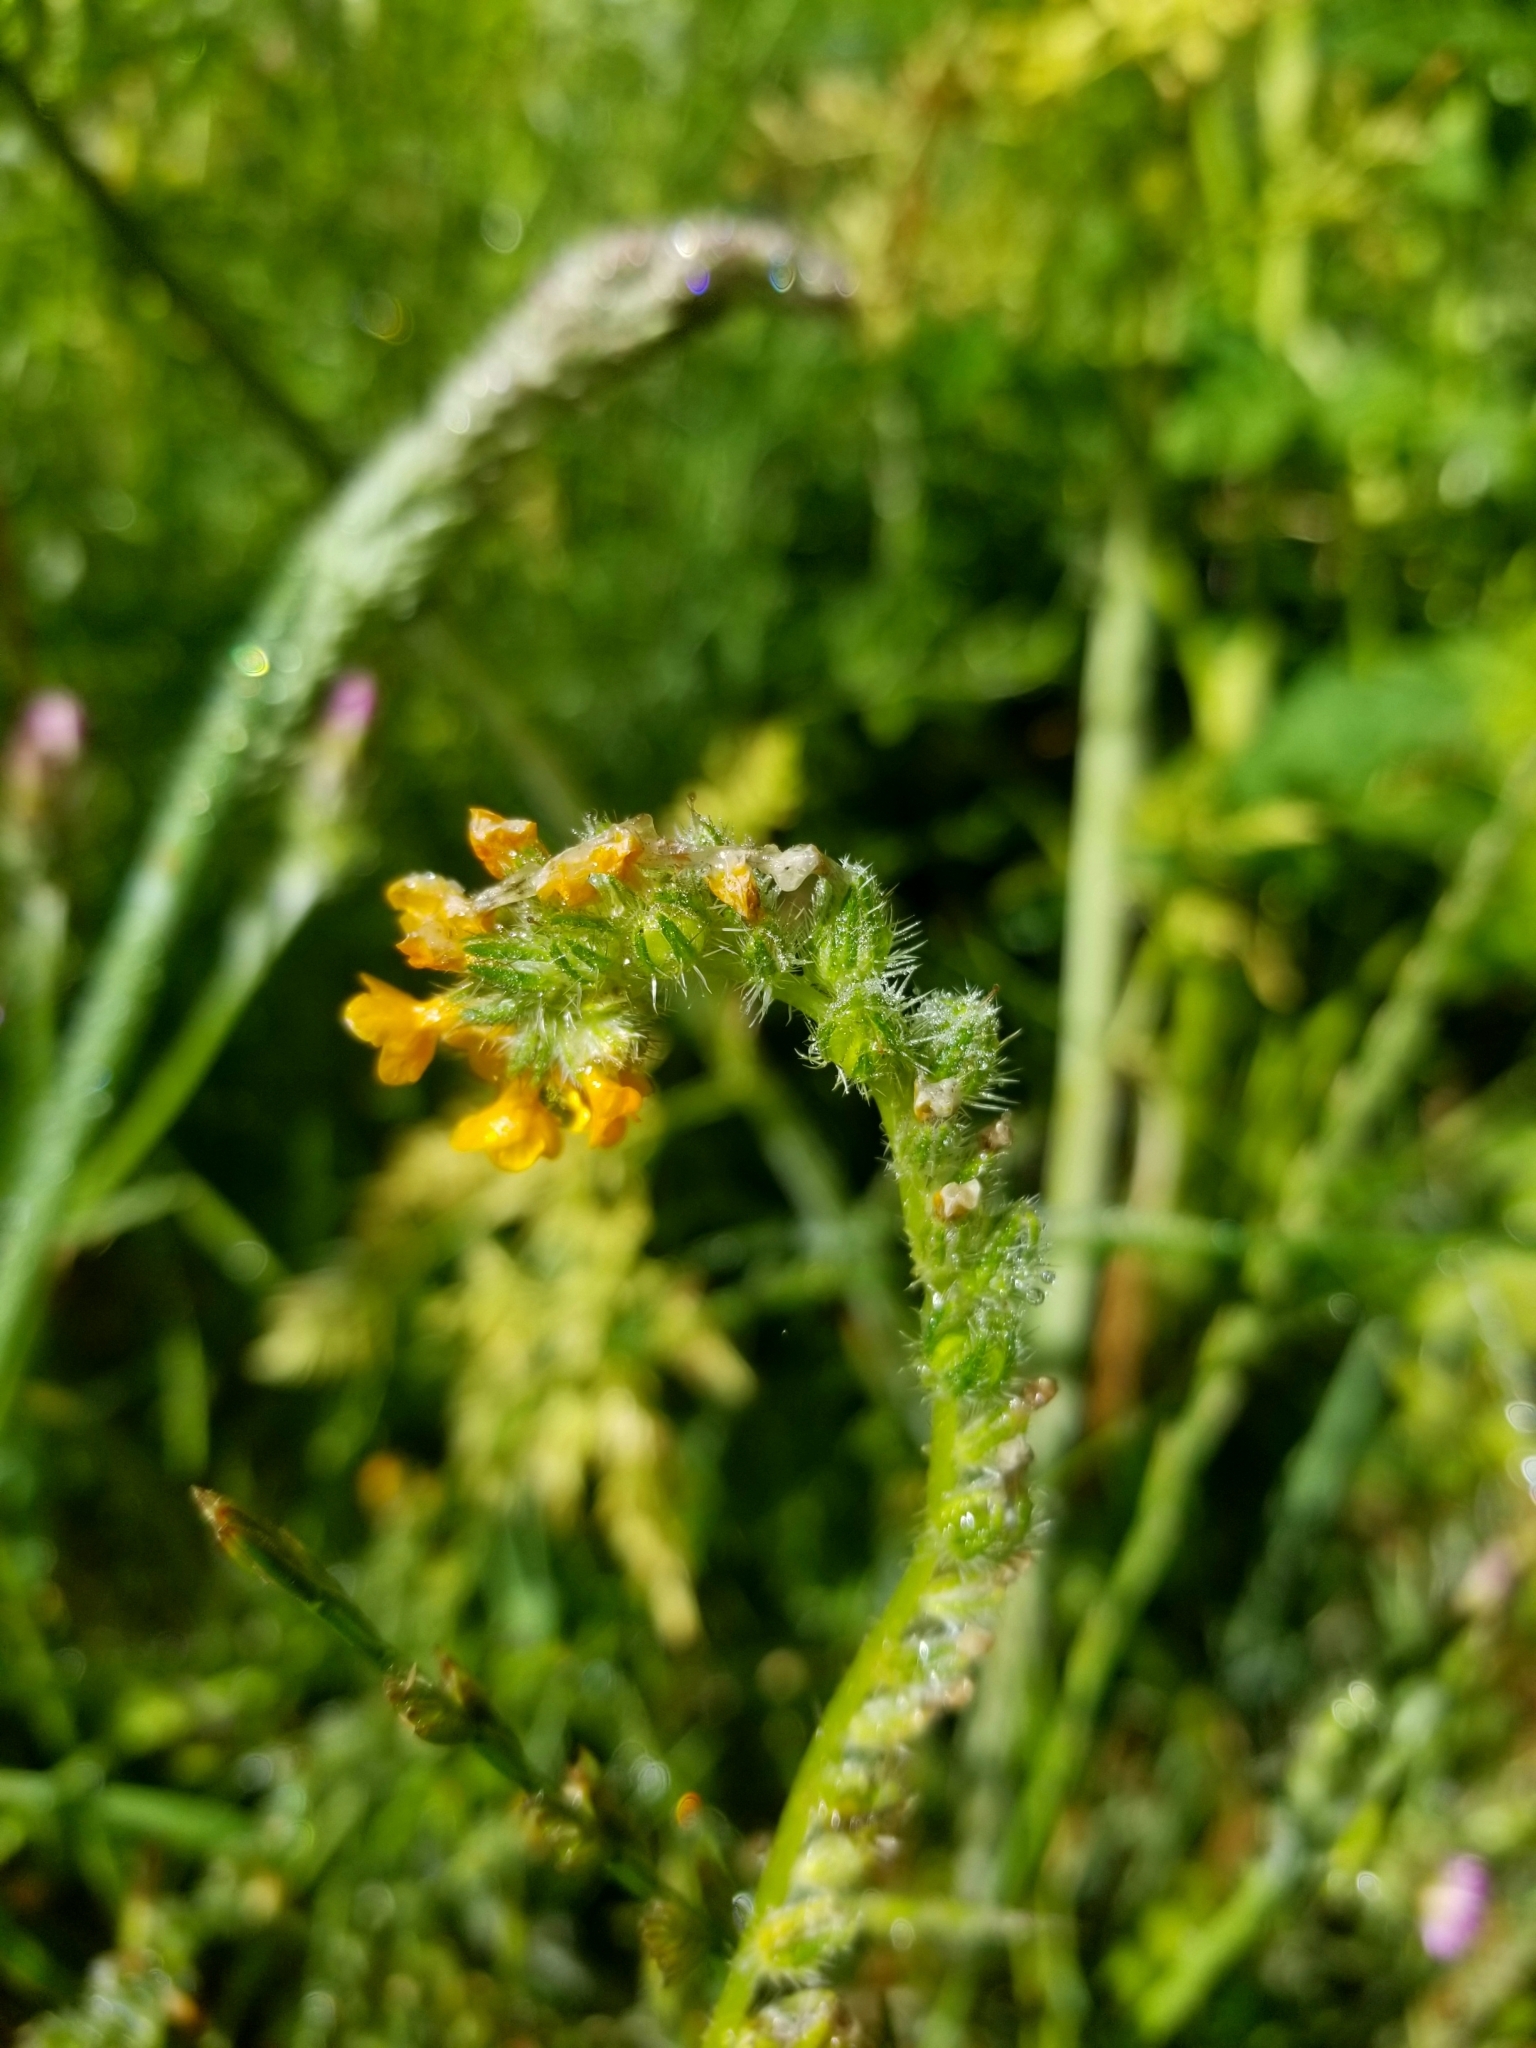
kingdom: Plantae
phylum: Tracheophyta
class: Magnoliopsida
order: Boraginales
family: Boraginaceae
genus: Amsinckia
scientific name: Amsinckia menziesii
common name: Menzies' fiddleneck
